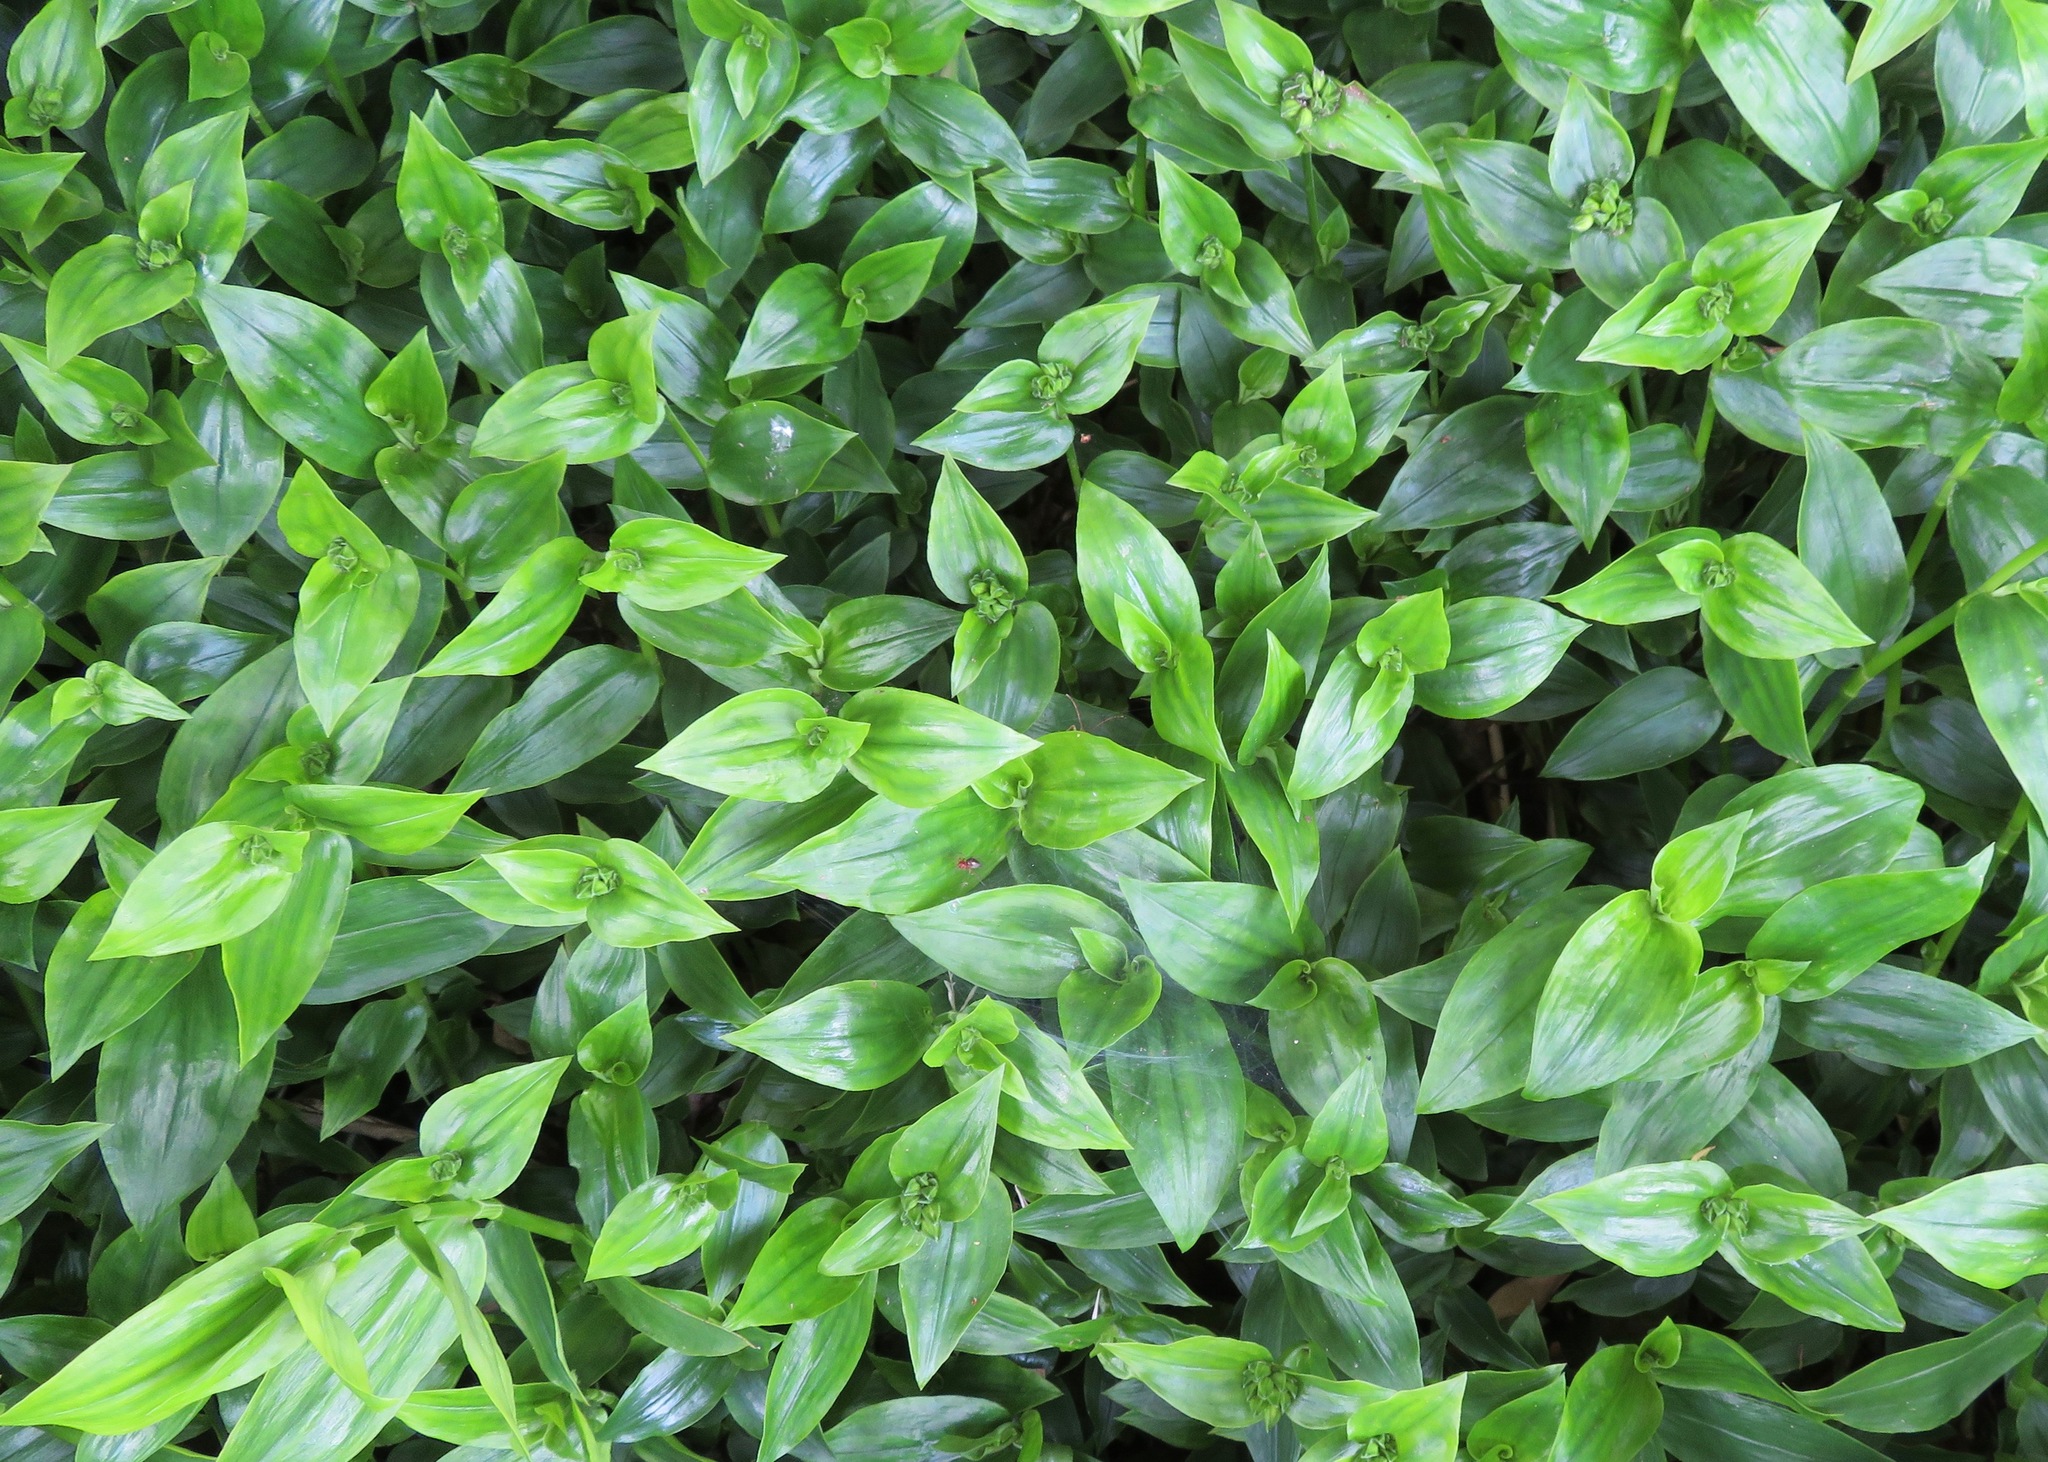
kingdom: Plantae
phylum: Tracheophyta
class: Liliopsida
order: Commelinales
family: Commelinaceae
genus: Tradescantia
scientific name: Tradescantia fluminensis
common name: Wandering-jew
